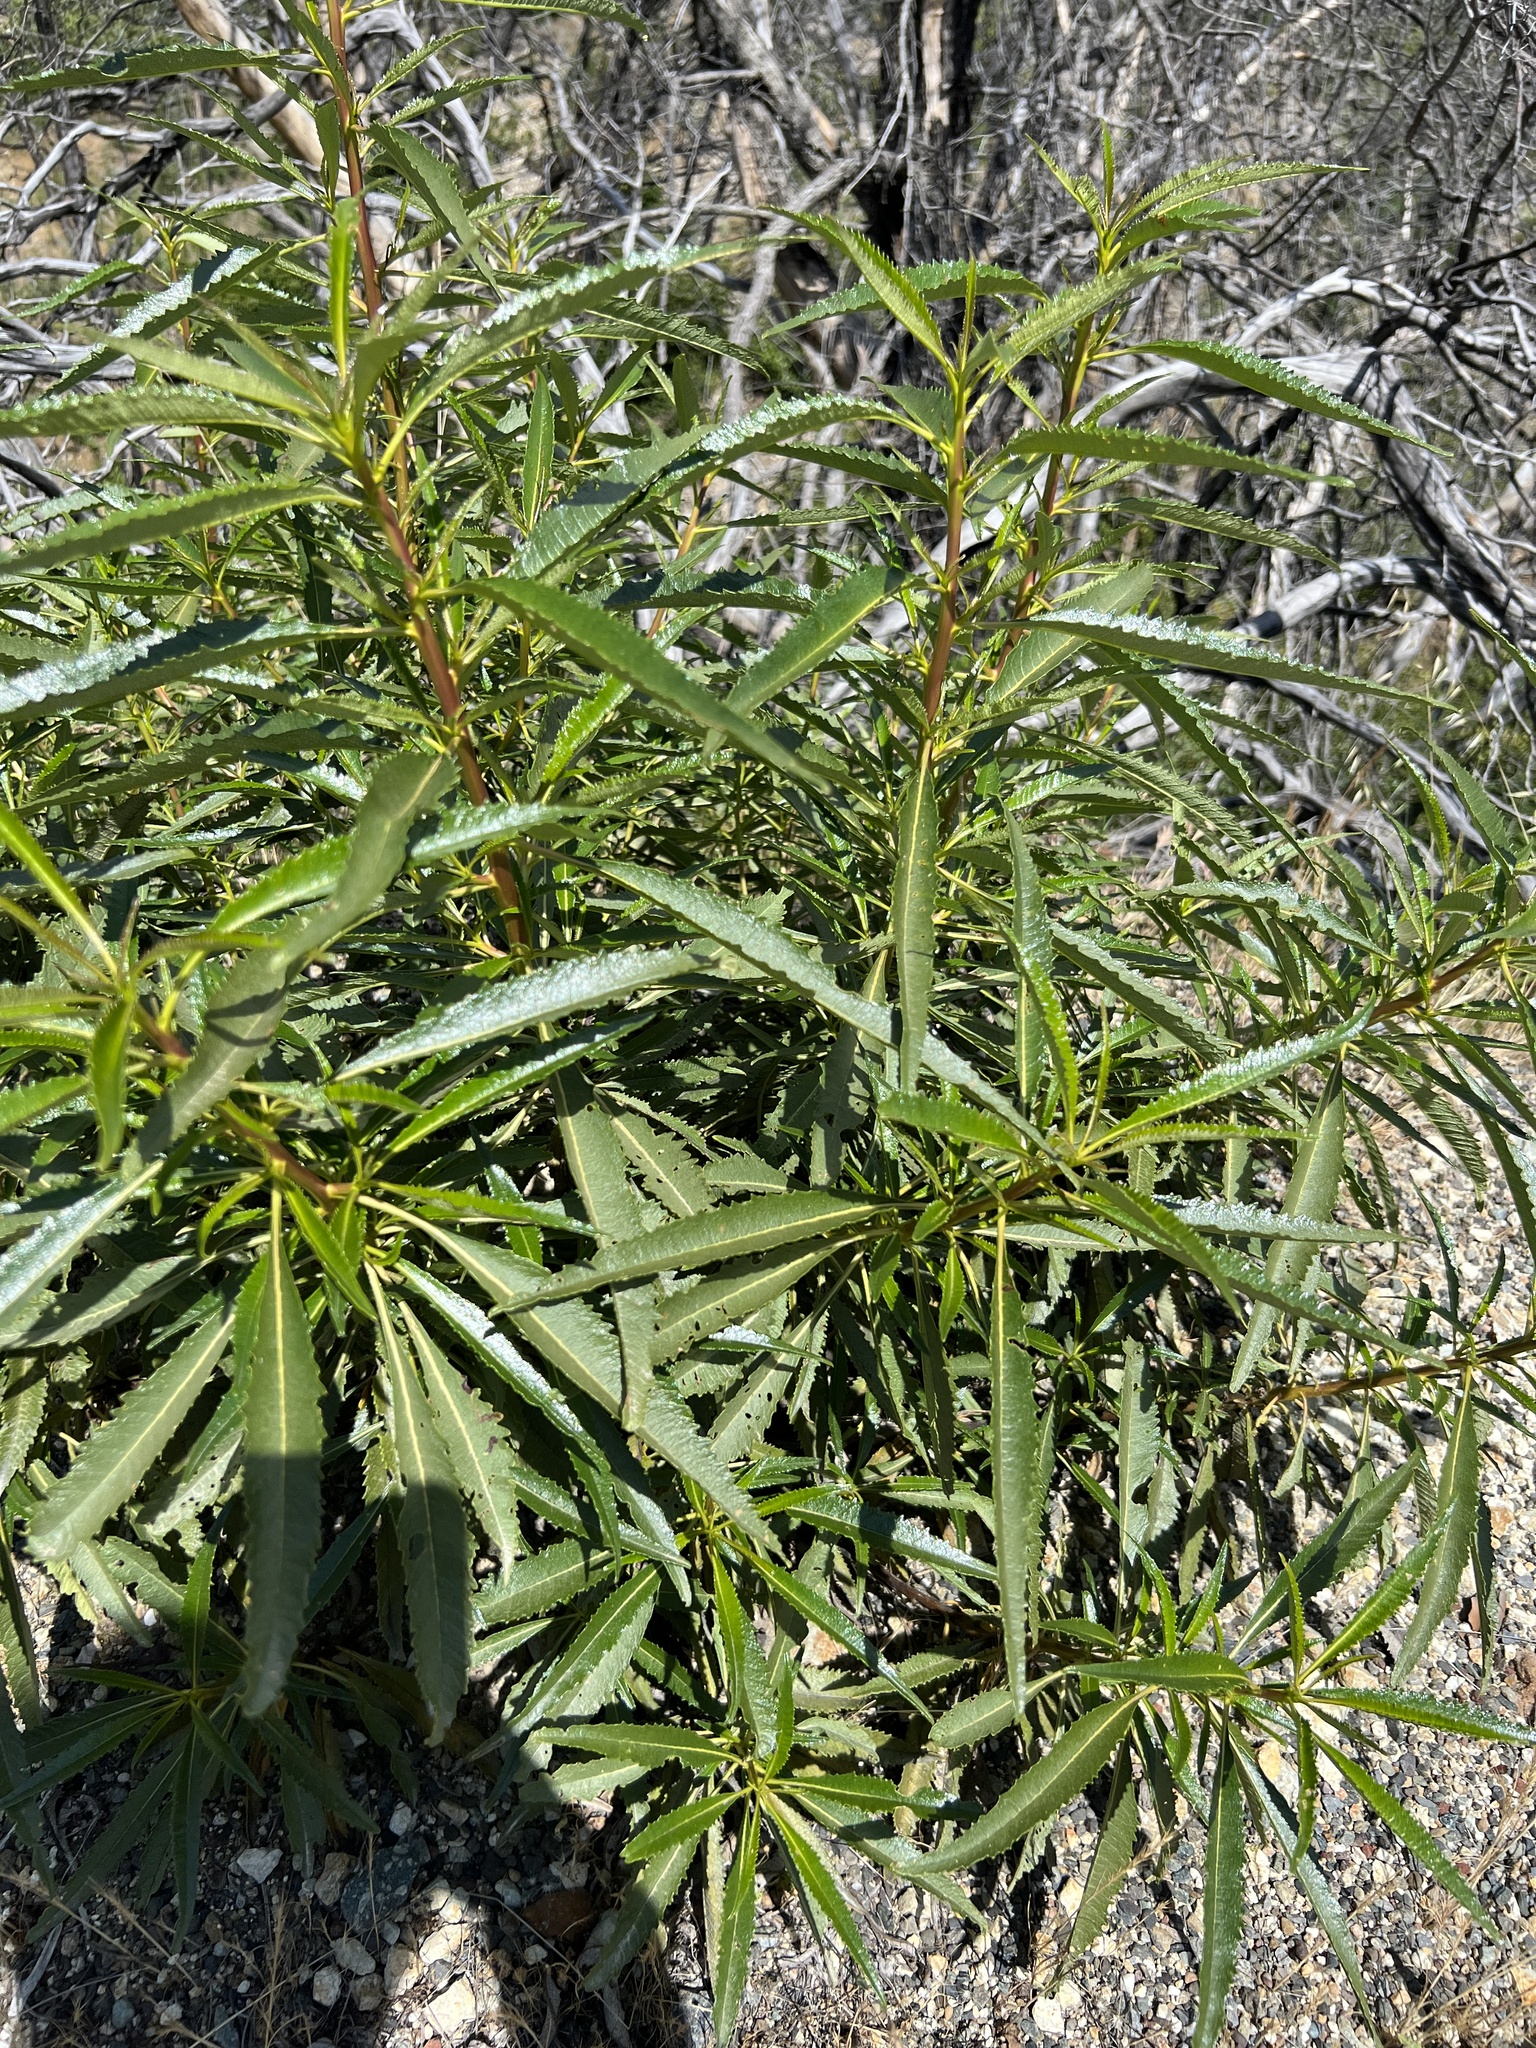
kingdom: Plantae
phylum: Tracheophyta
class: Magnoliopsida
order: Boraginales
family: Namaceae
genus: Eriodictyon
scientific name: Eriodictyon californicum
